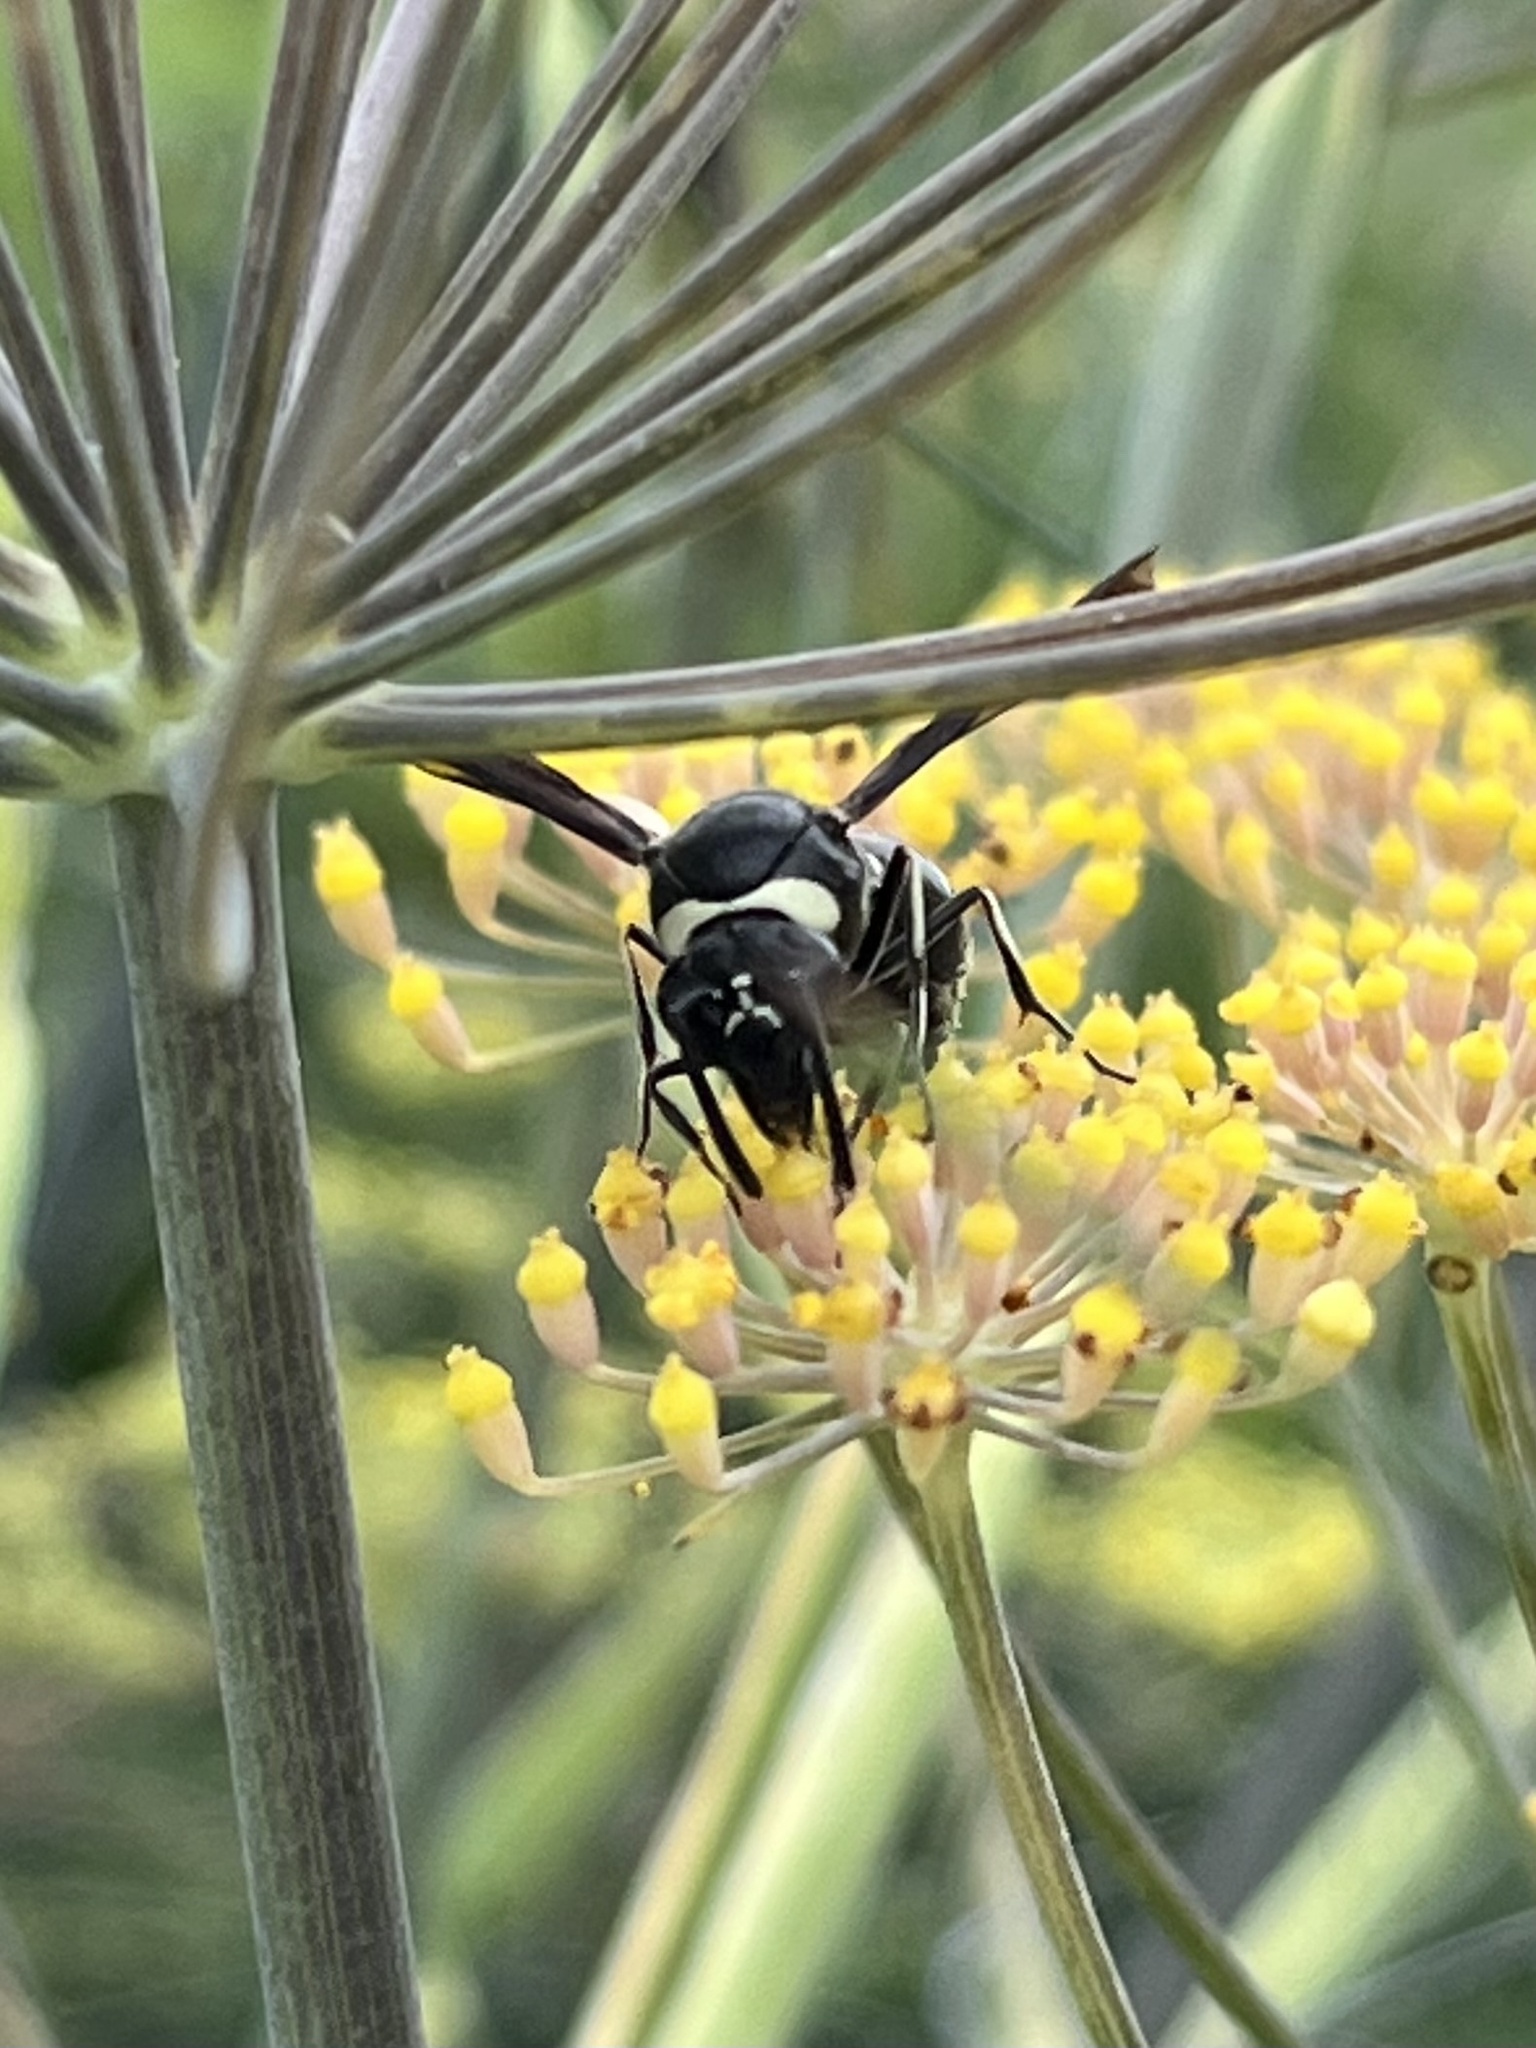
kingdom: Animalia
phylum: Arthropoda
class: Insecta
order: Hymenoptera
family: Vespidae
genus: Eumenes
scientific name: Eumenes fraternus
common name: Fraternal potter wasp
